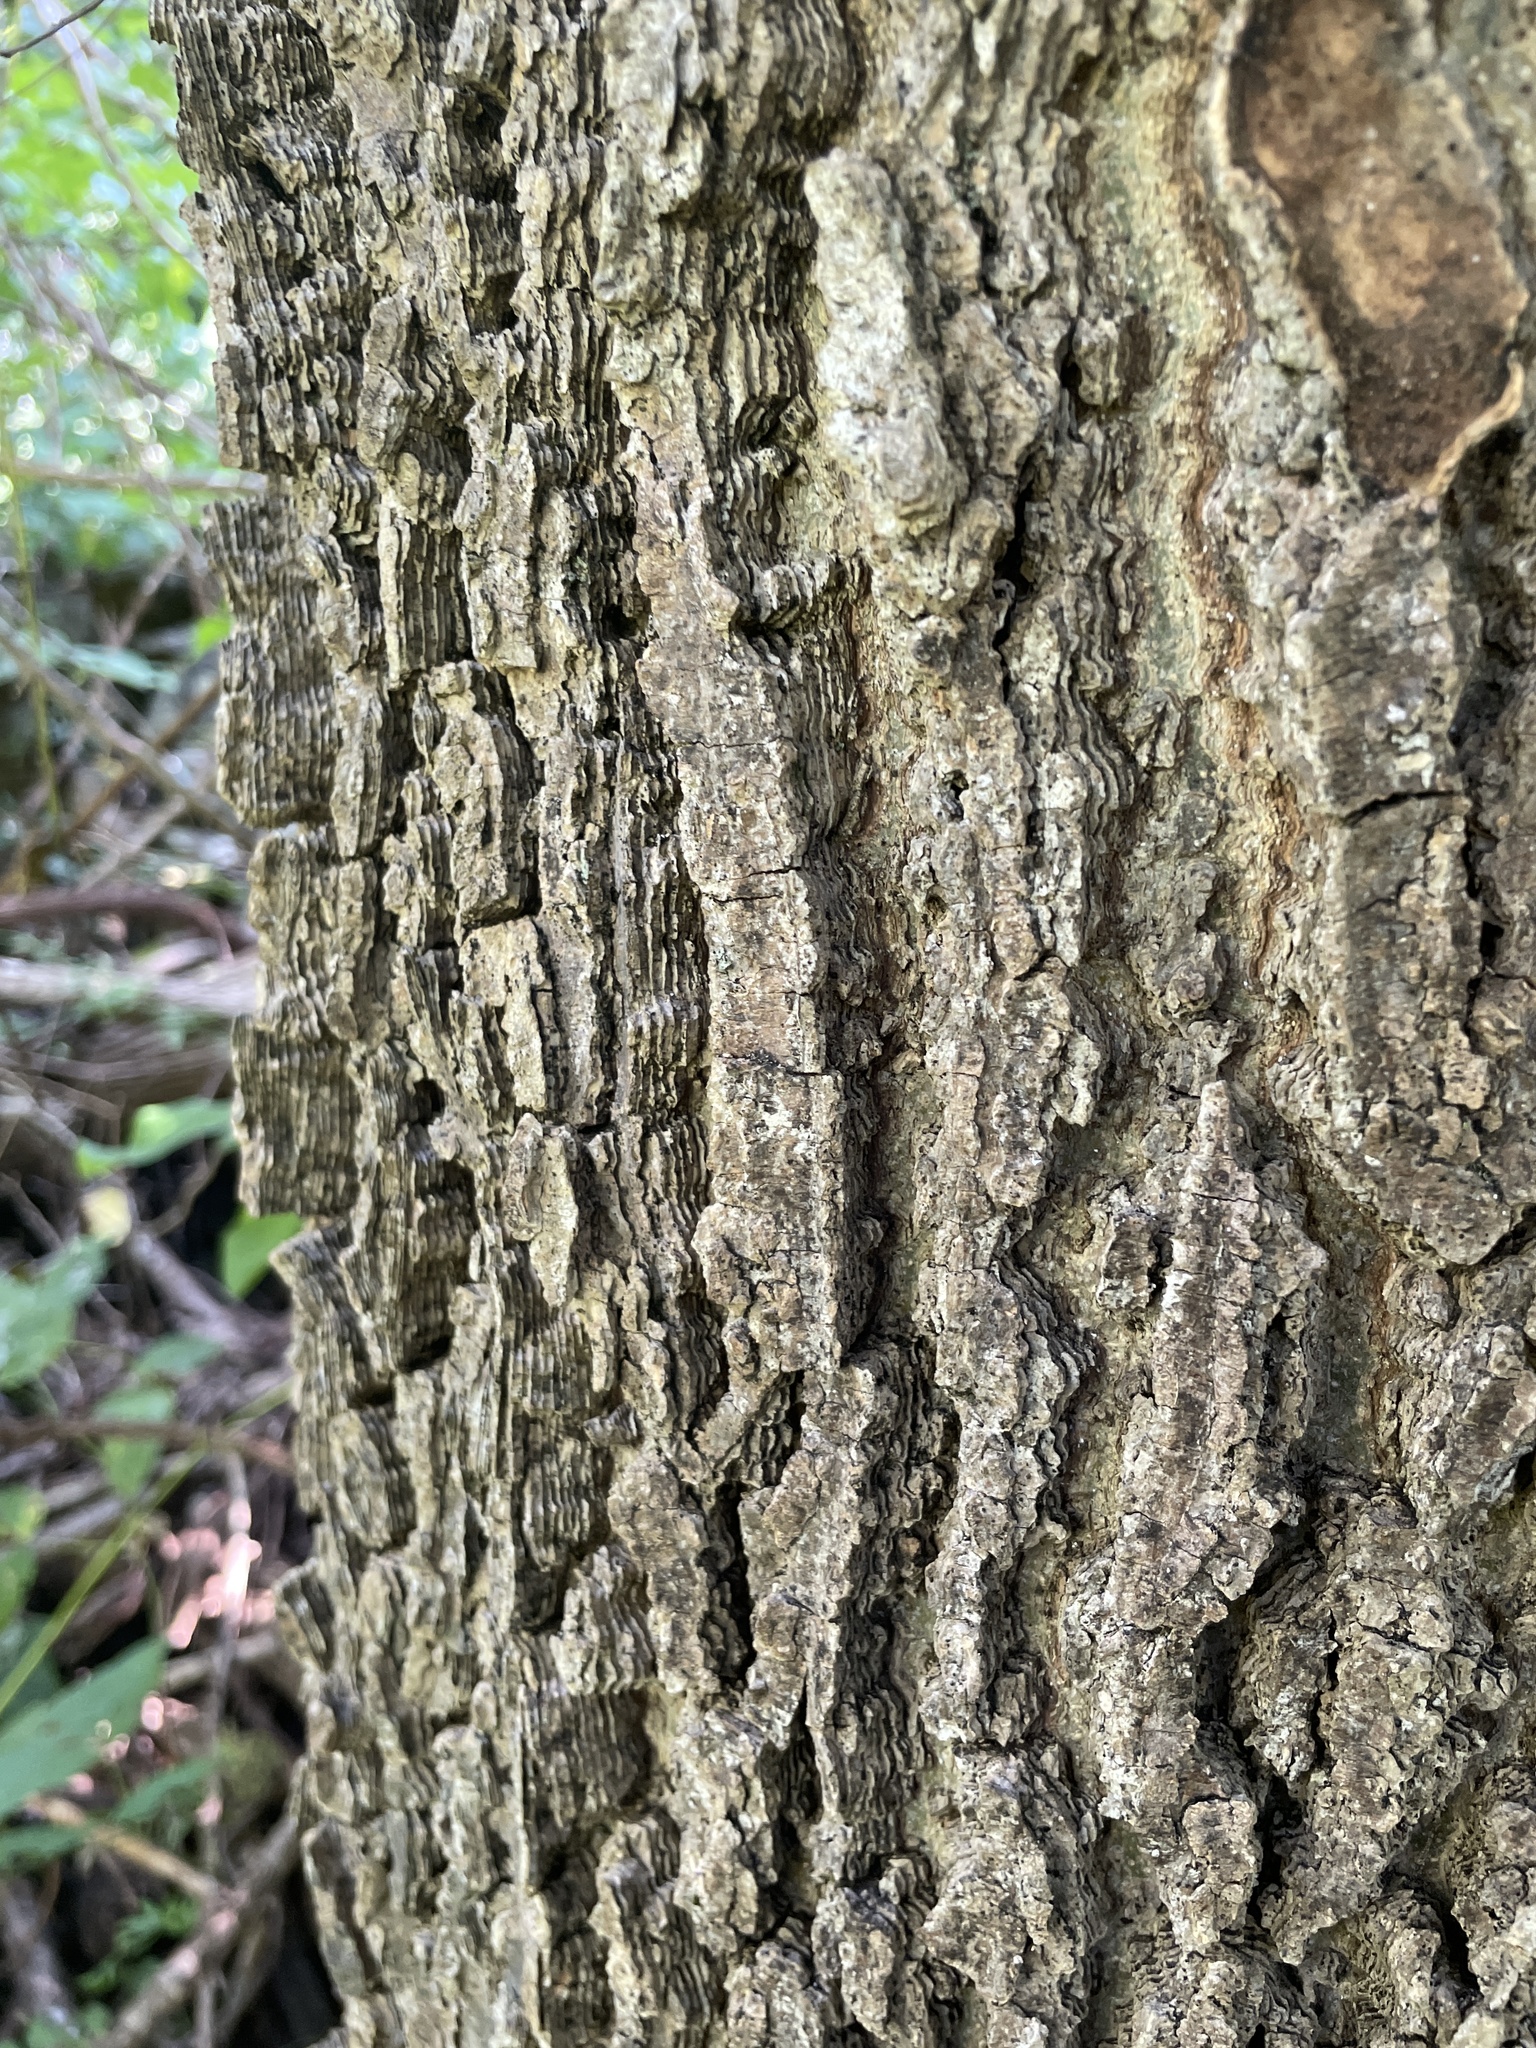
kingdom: Plantae
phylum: Tracheophyta
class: Magnoliopsida
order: Rosales
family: Cannabaceae
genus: Celtis
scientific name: Celtis occidentalis
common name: Common hackberry
